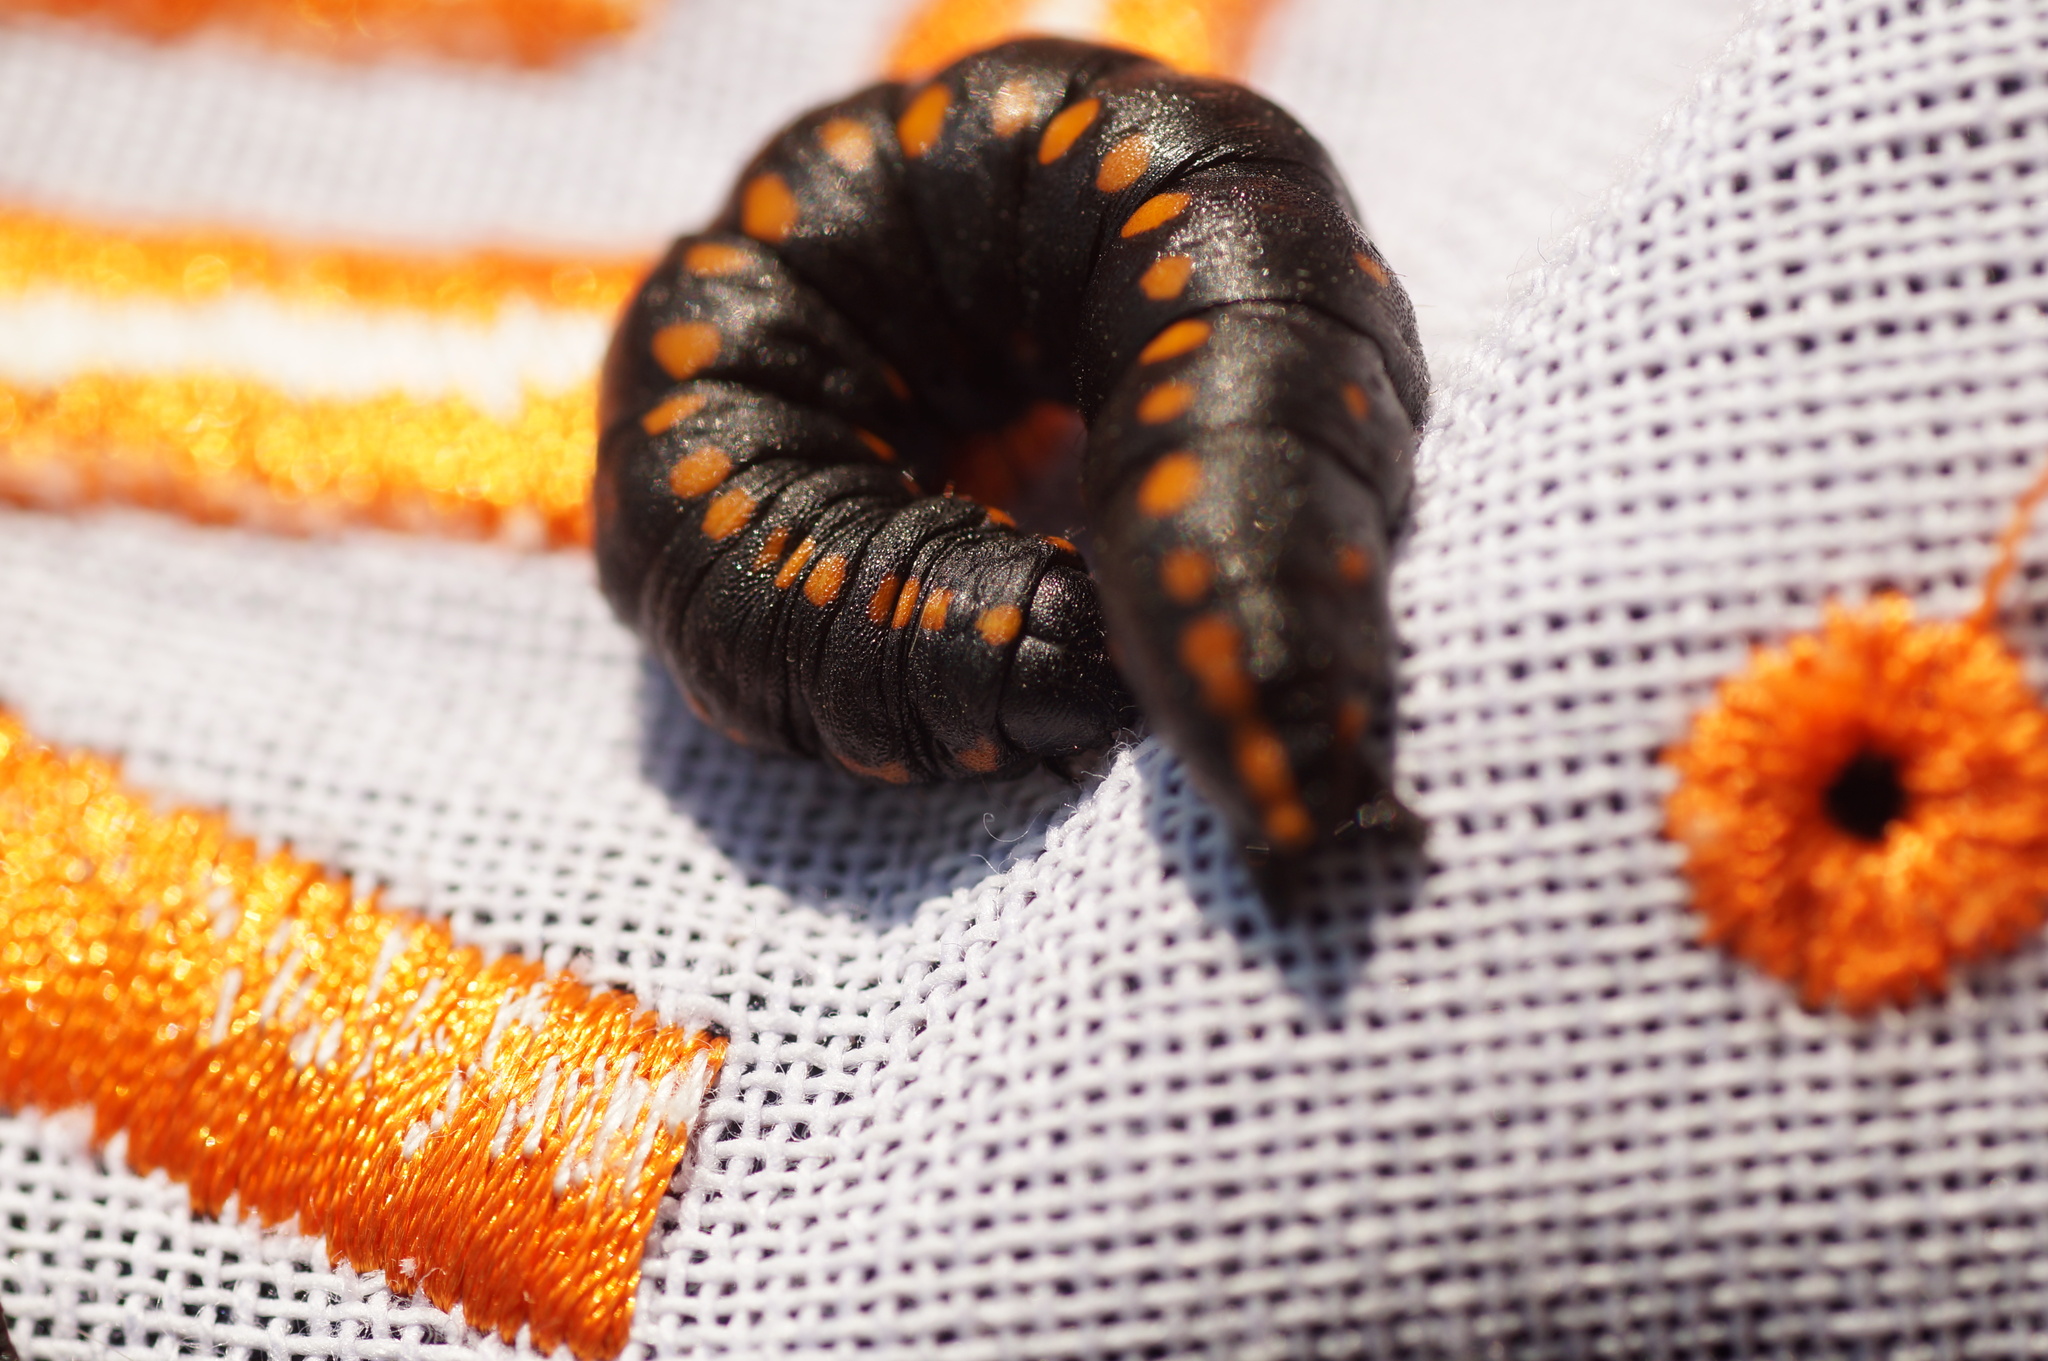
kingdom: Animalia
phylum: Arthropoda
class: Insecta
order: Lepidoptera
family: Noctuidae
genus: Cucullia
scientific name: Cucullia lucifuga
